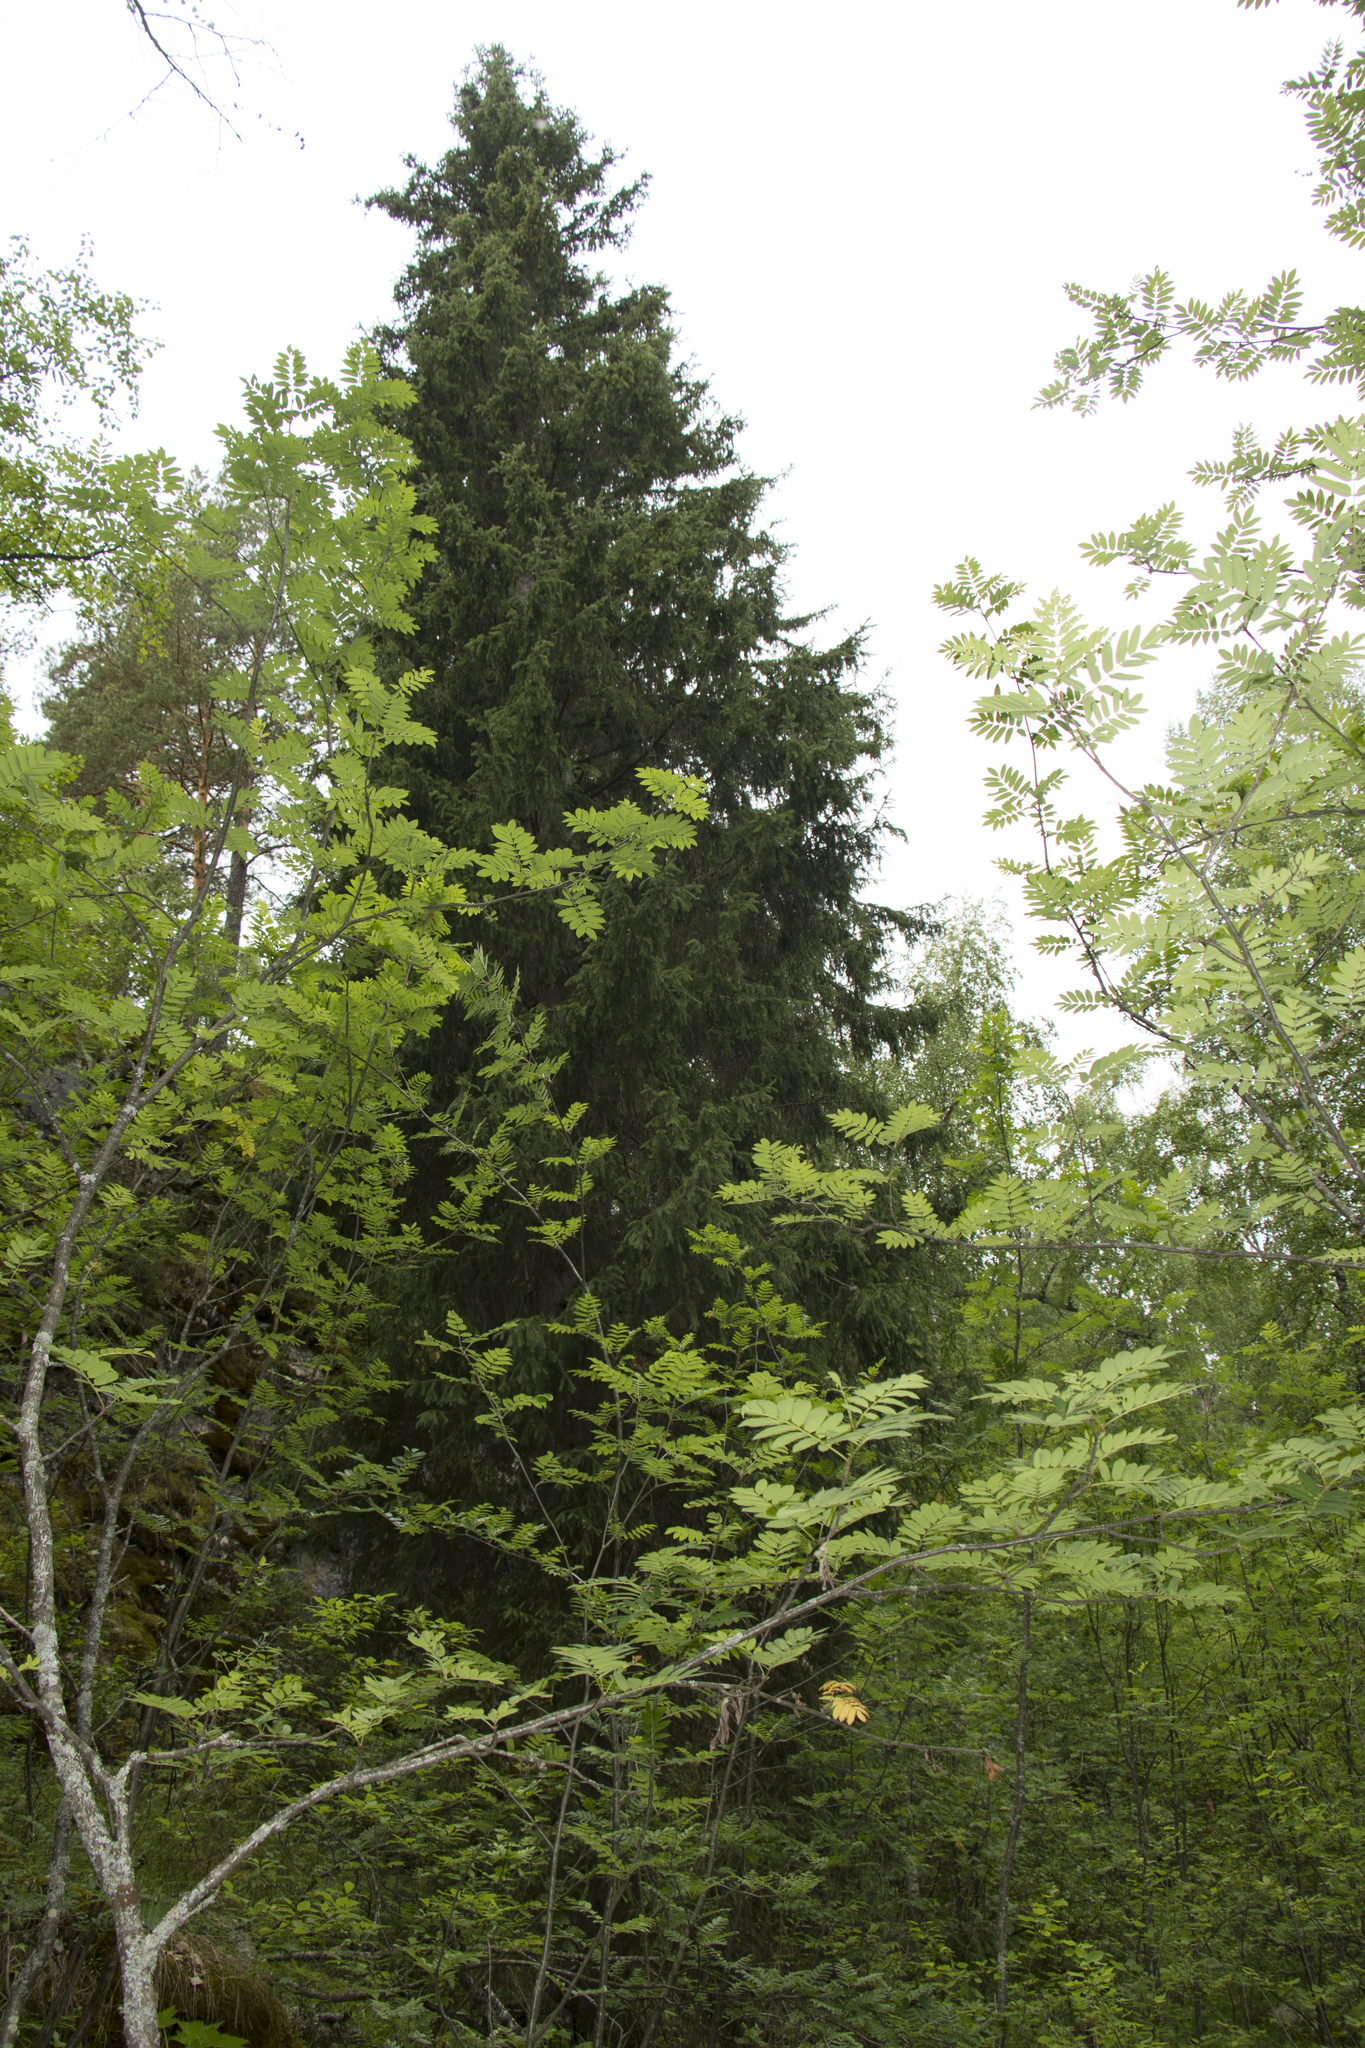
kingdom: Plantae
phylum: Tracheophyta
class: Pinopsida
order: Pinales
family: Pinaceae
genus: Picea
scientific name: Picea obovata
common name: Siberian spruce
